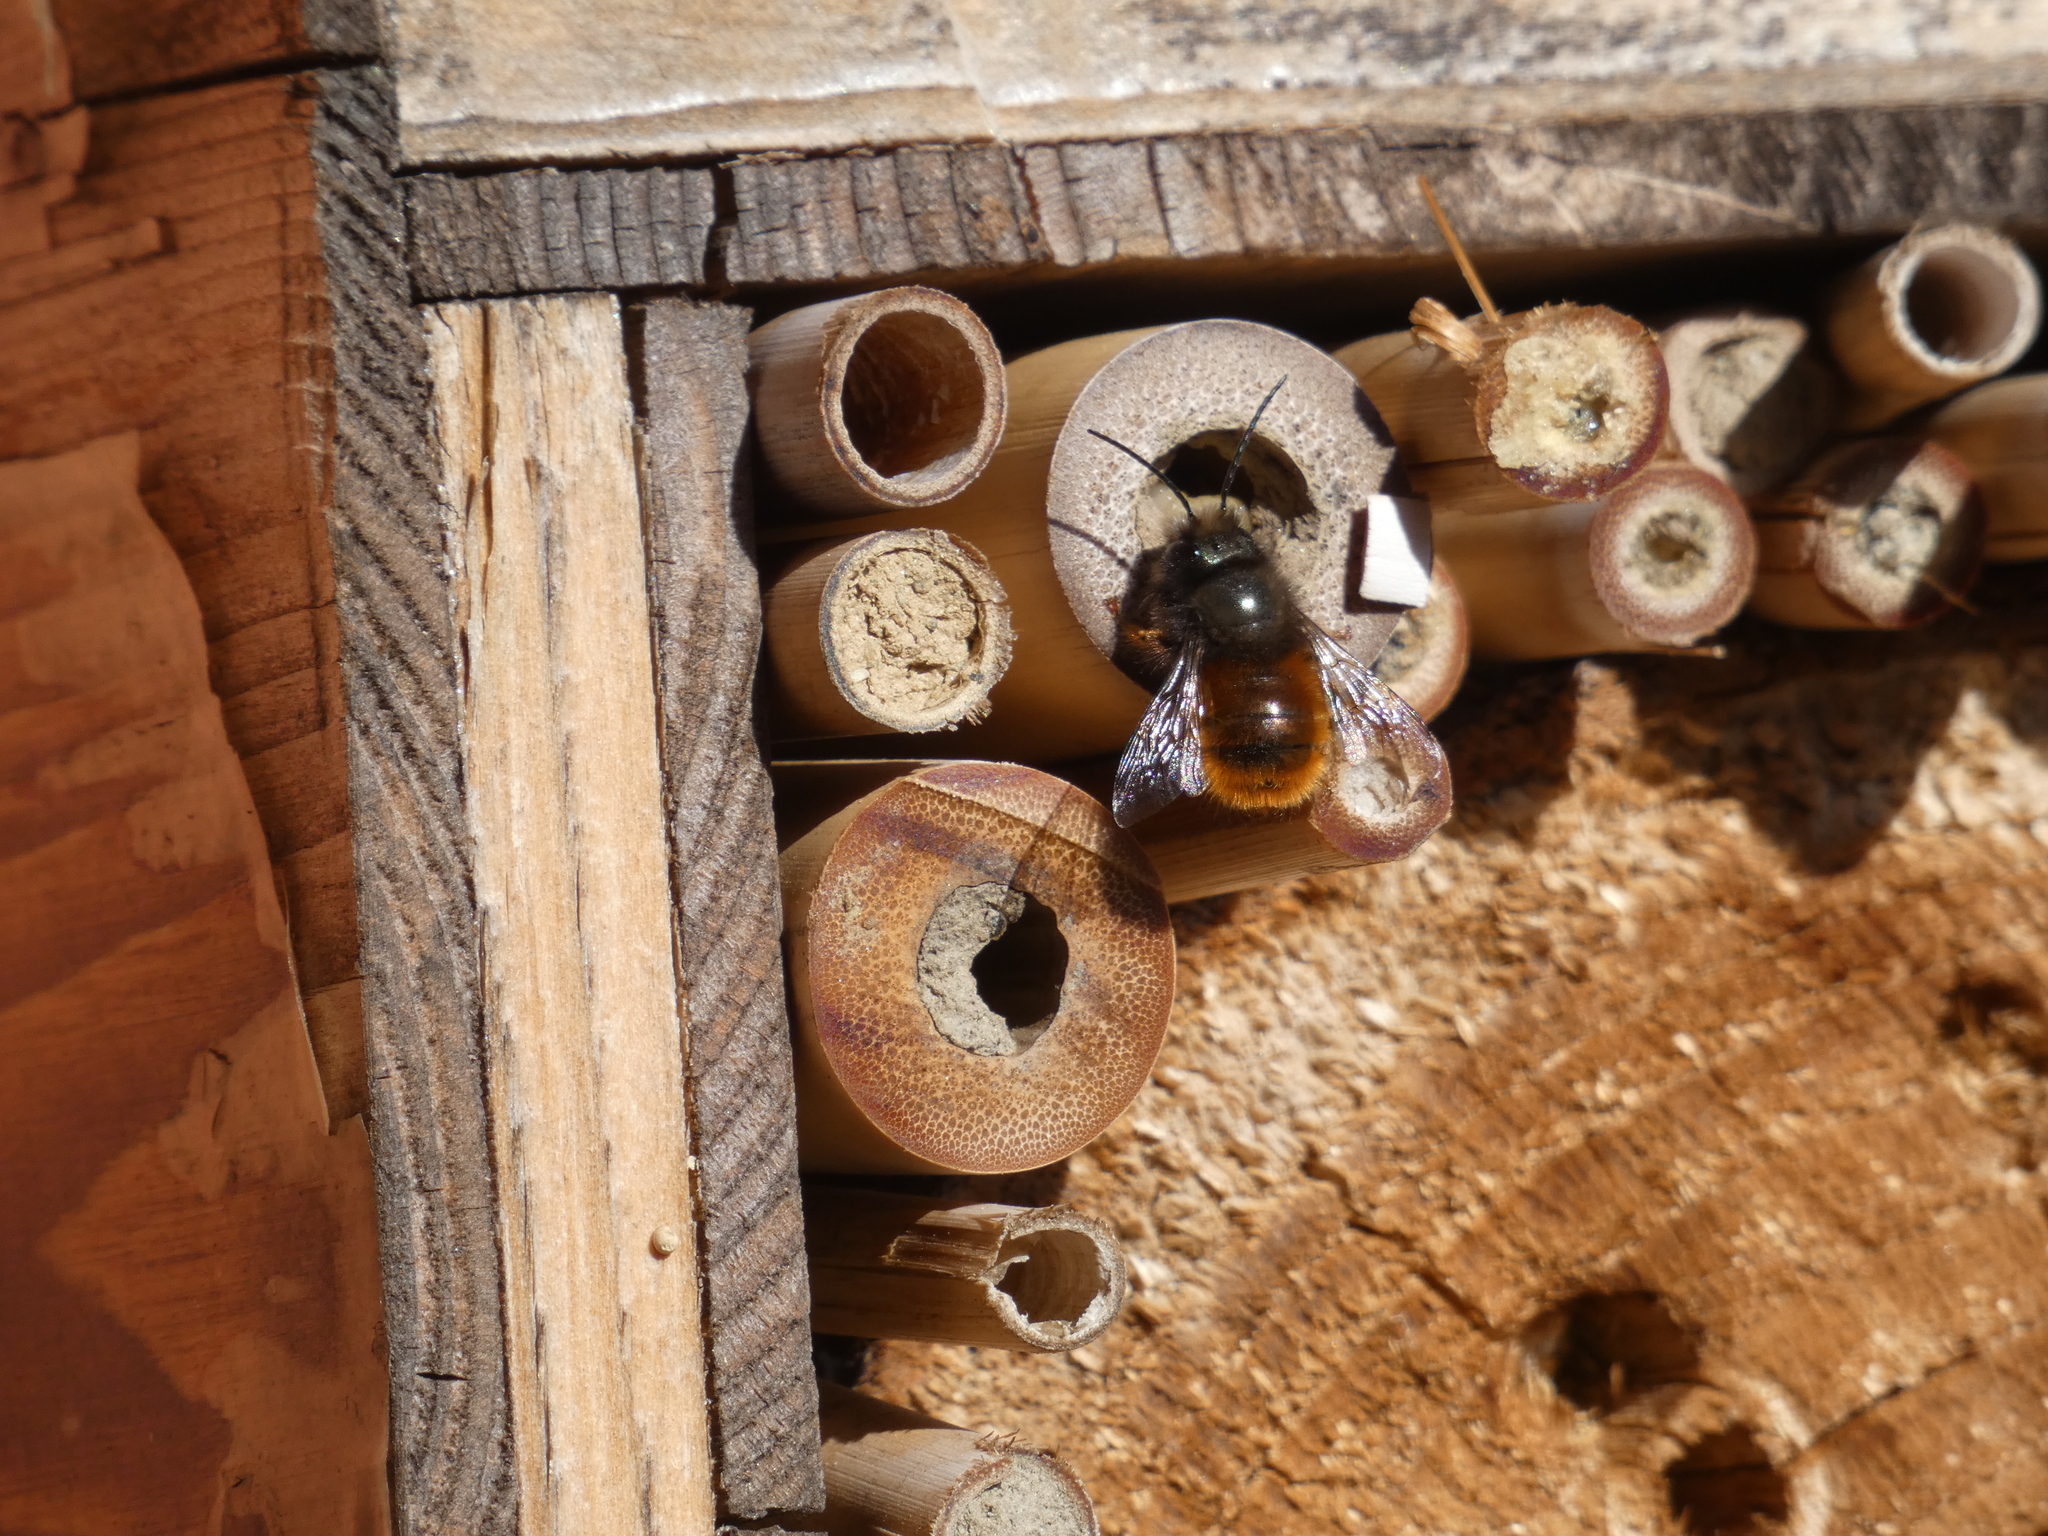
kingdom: Animalia
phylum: Arthropoda
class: Insecta
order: Hymenoptera
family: Megachilidae
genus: Osmia
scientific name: Osmia cornuta
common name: Mason bee
